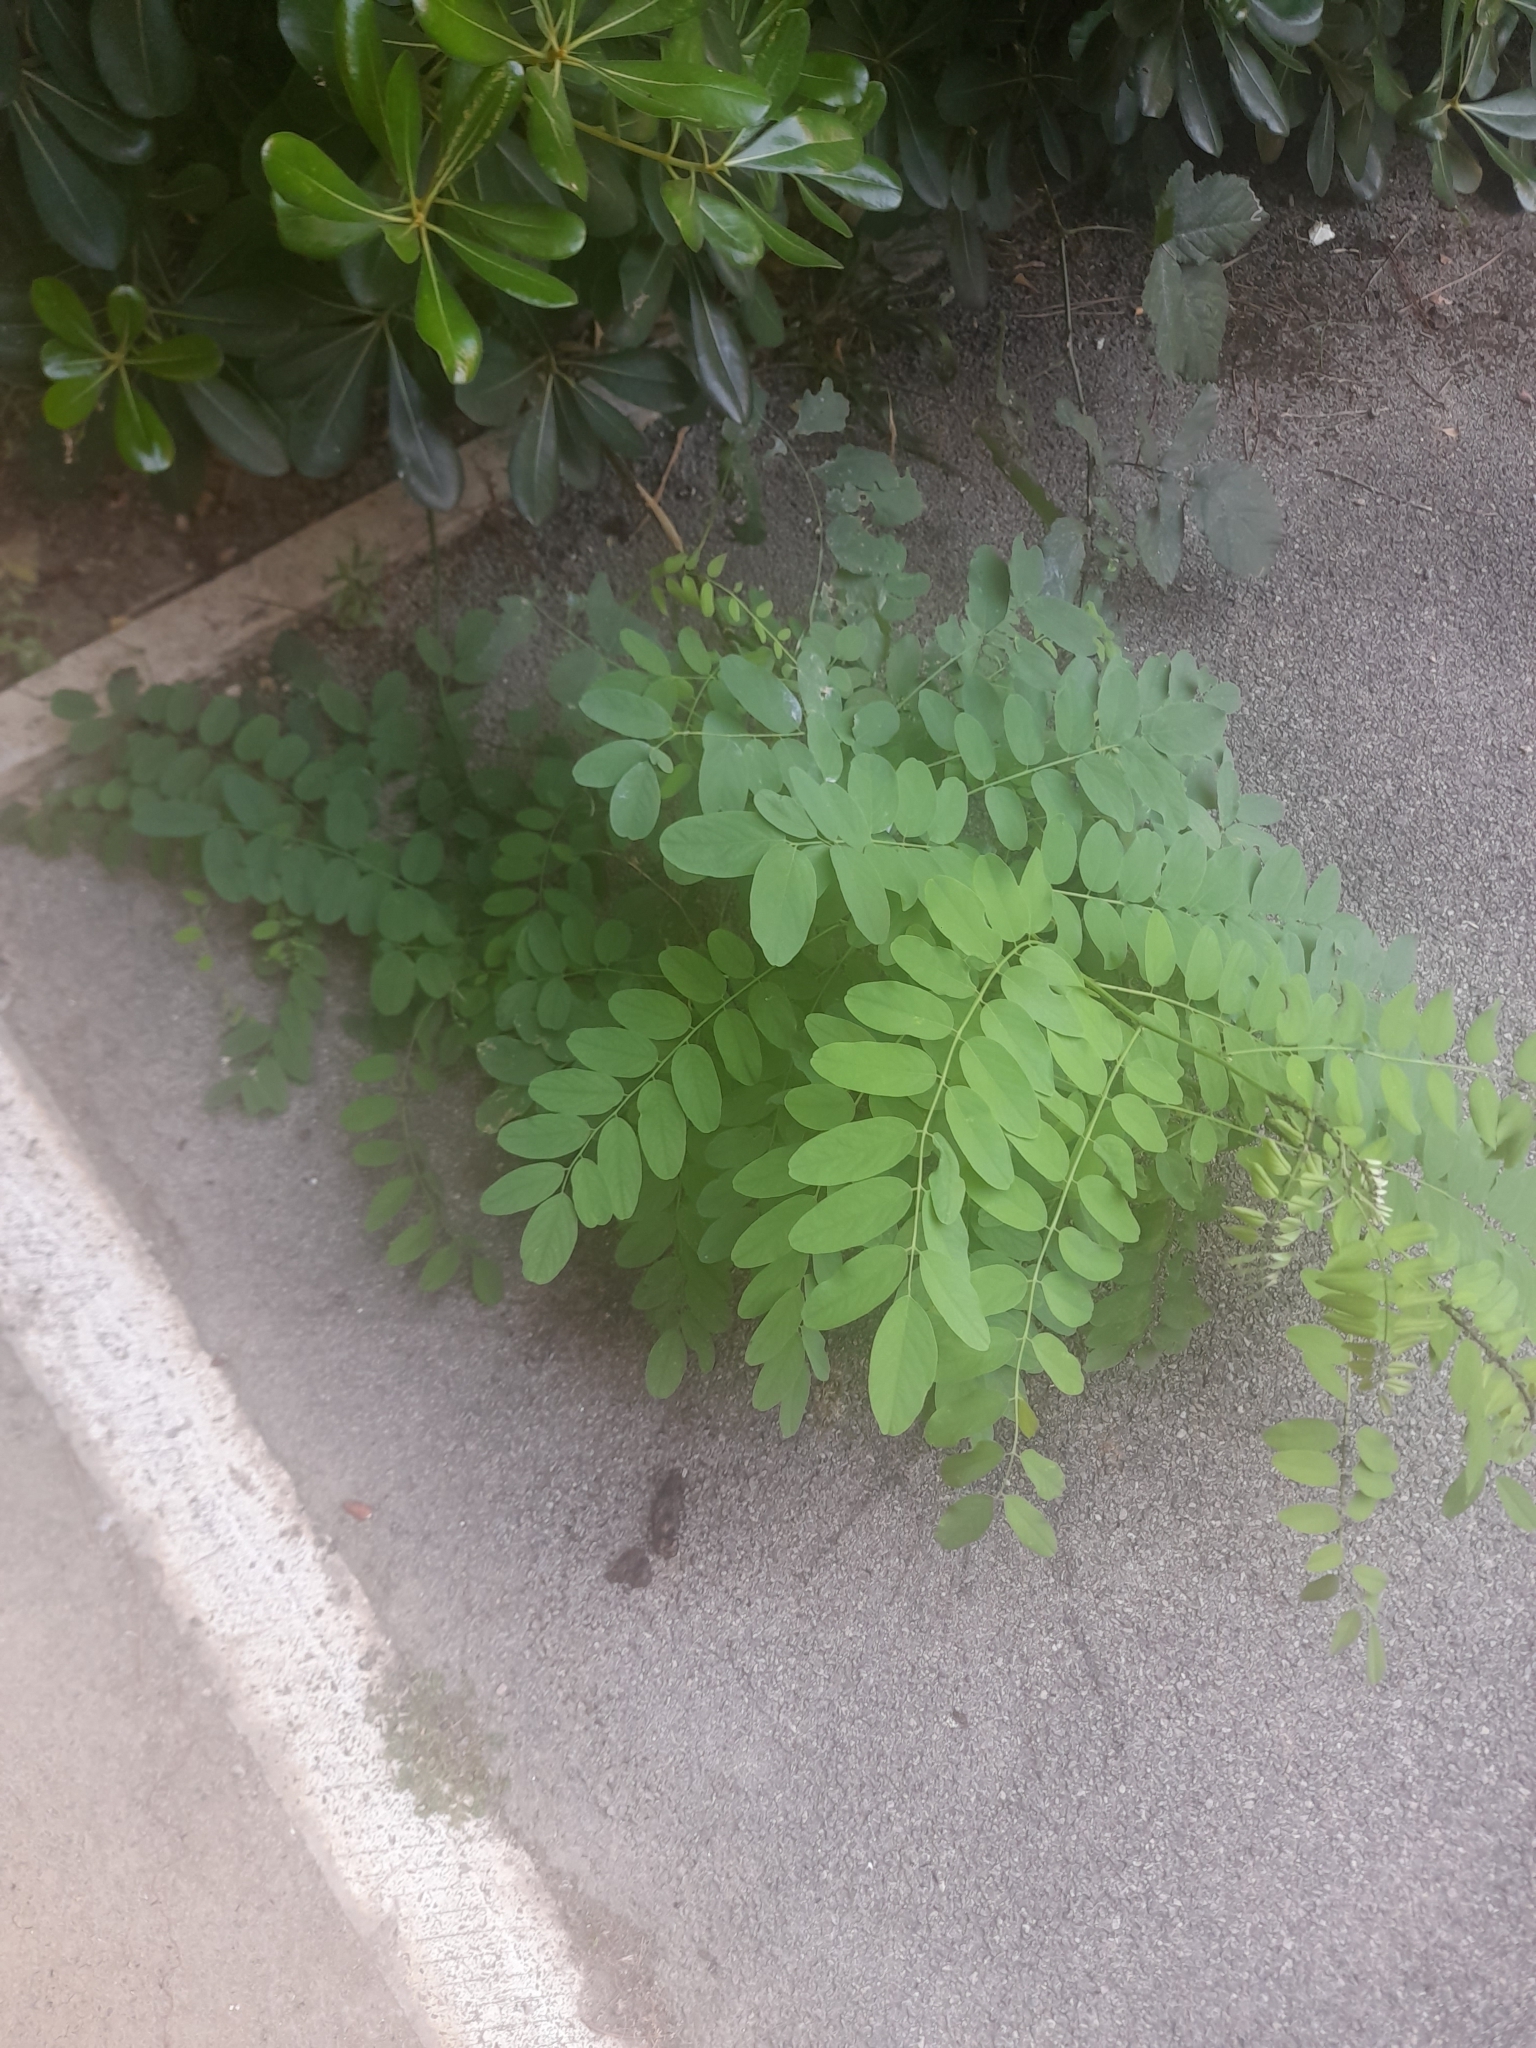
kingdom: Plantae
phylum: Tracheophyta
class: Magnoliopsida
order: Fabales
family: Fabaceae
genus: Robinia
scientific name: Robinia pseudoacacia
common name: Black locust
